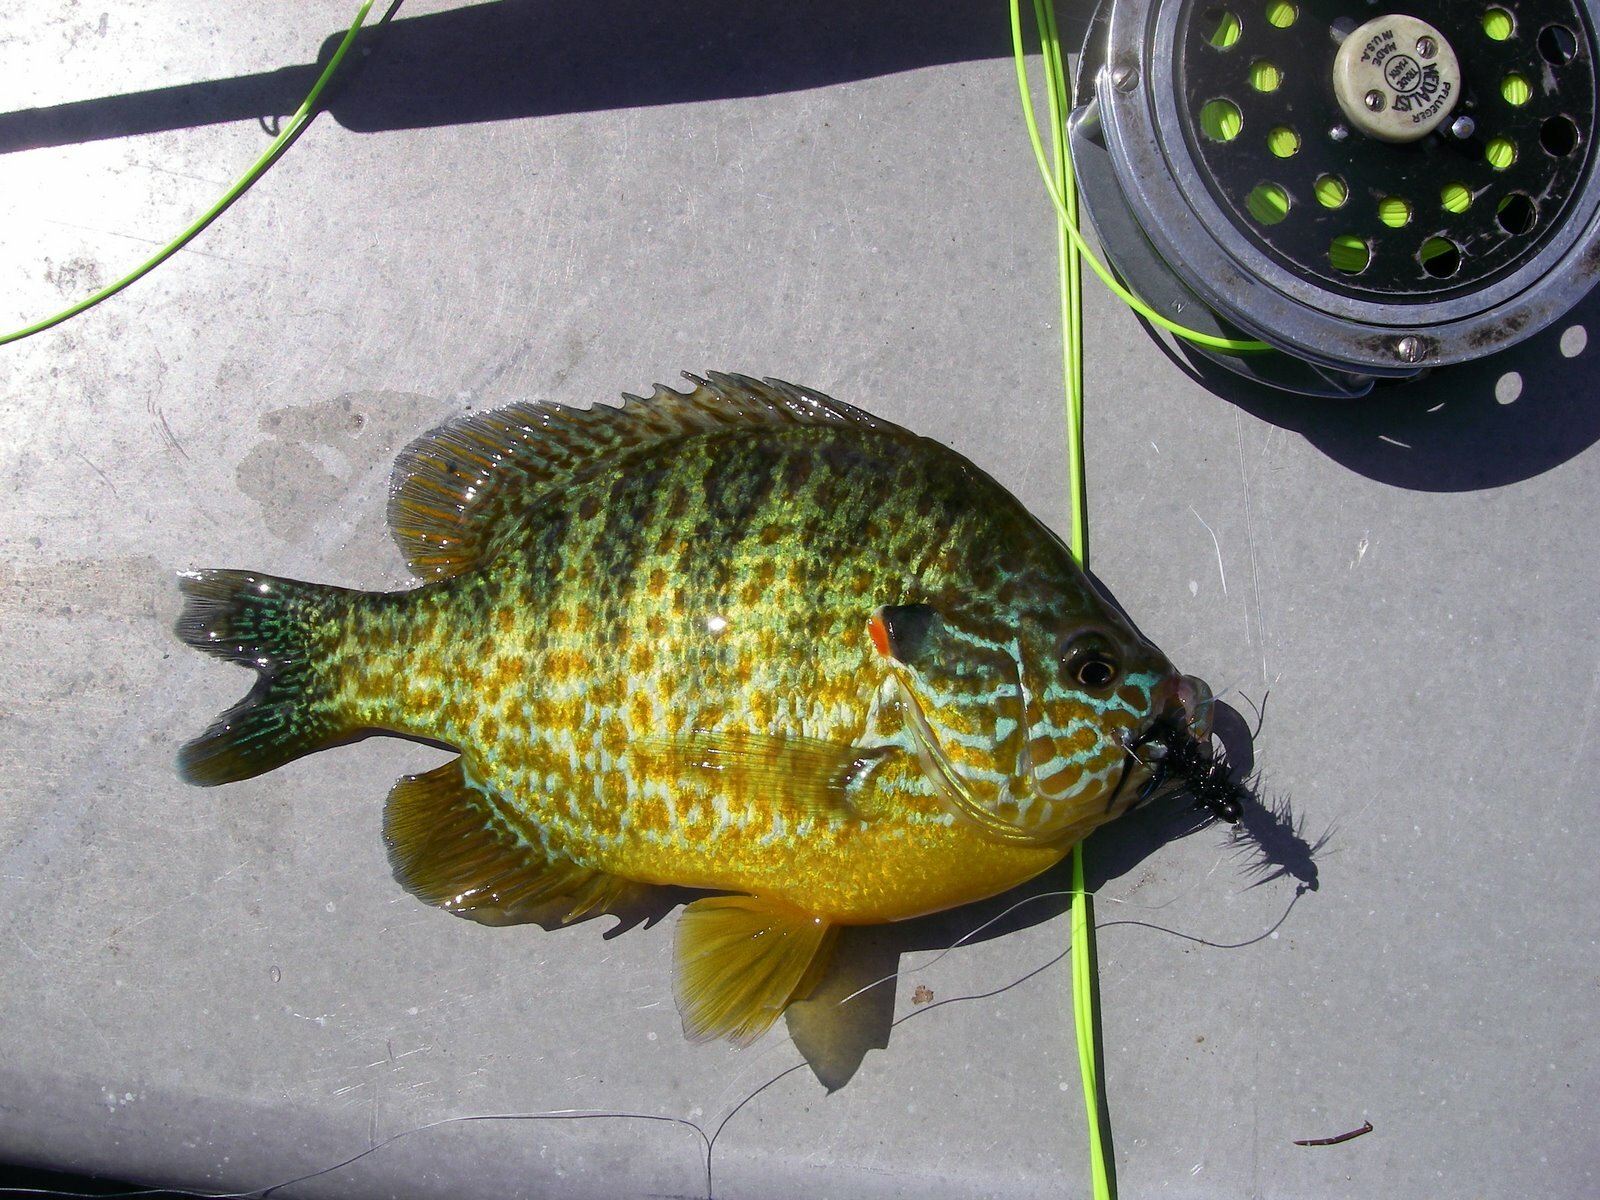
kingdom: Animalia
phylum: Chordata
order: Perciformes
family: Centrarchidae
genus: Lepomis
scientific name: Lepomis gibbosus
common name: Pumpkinseed
